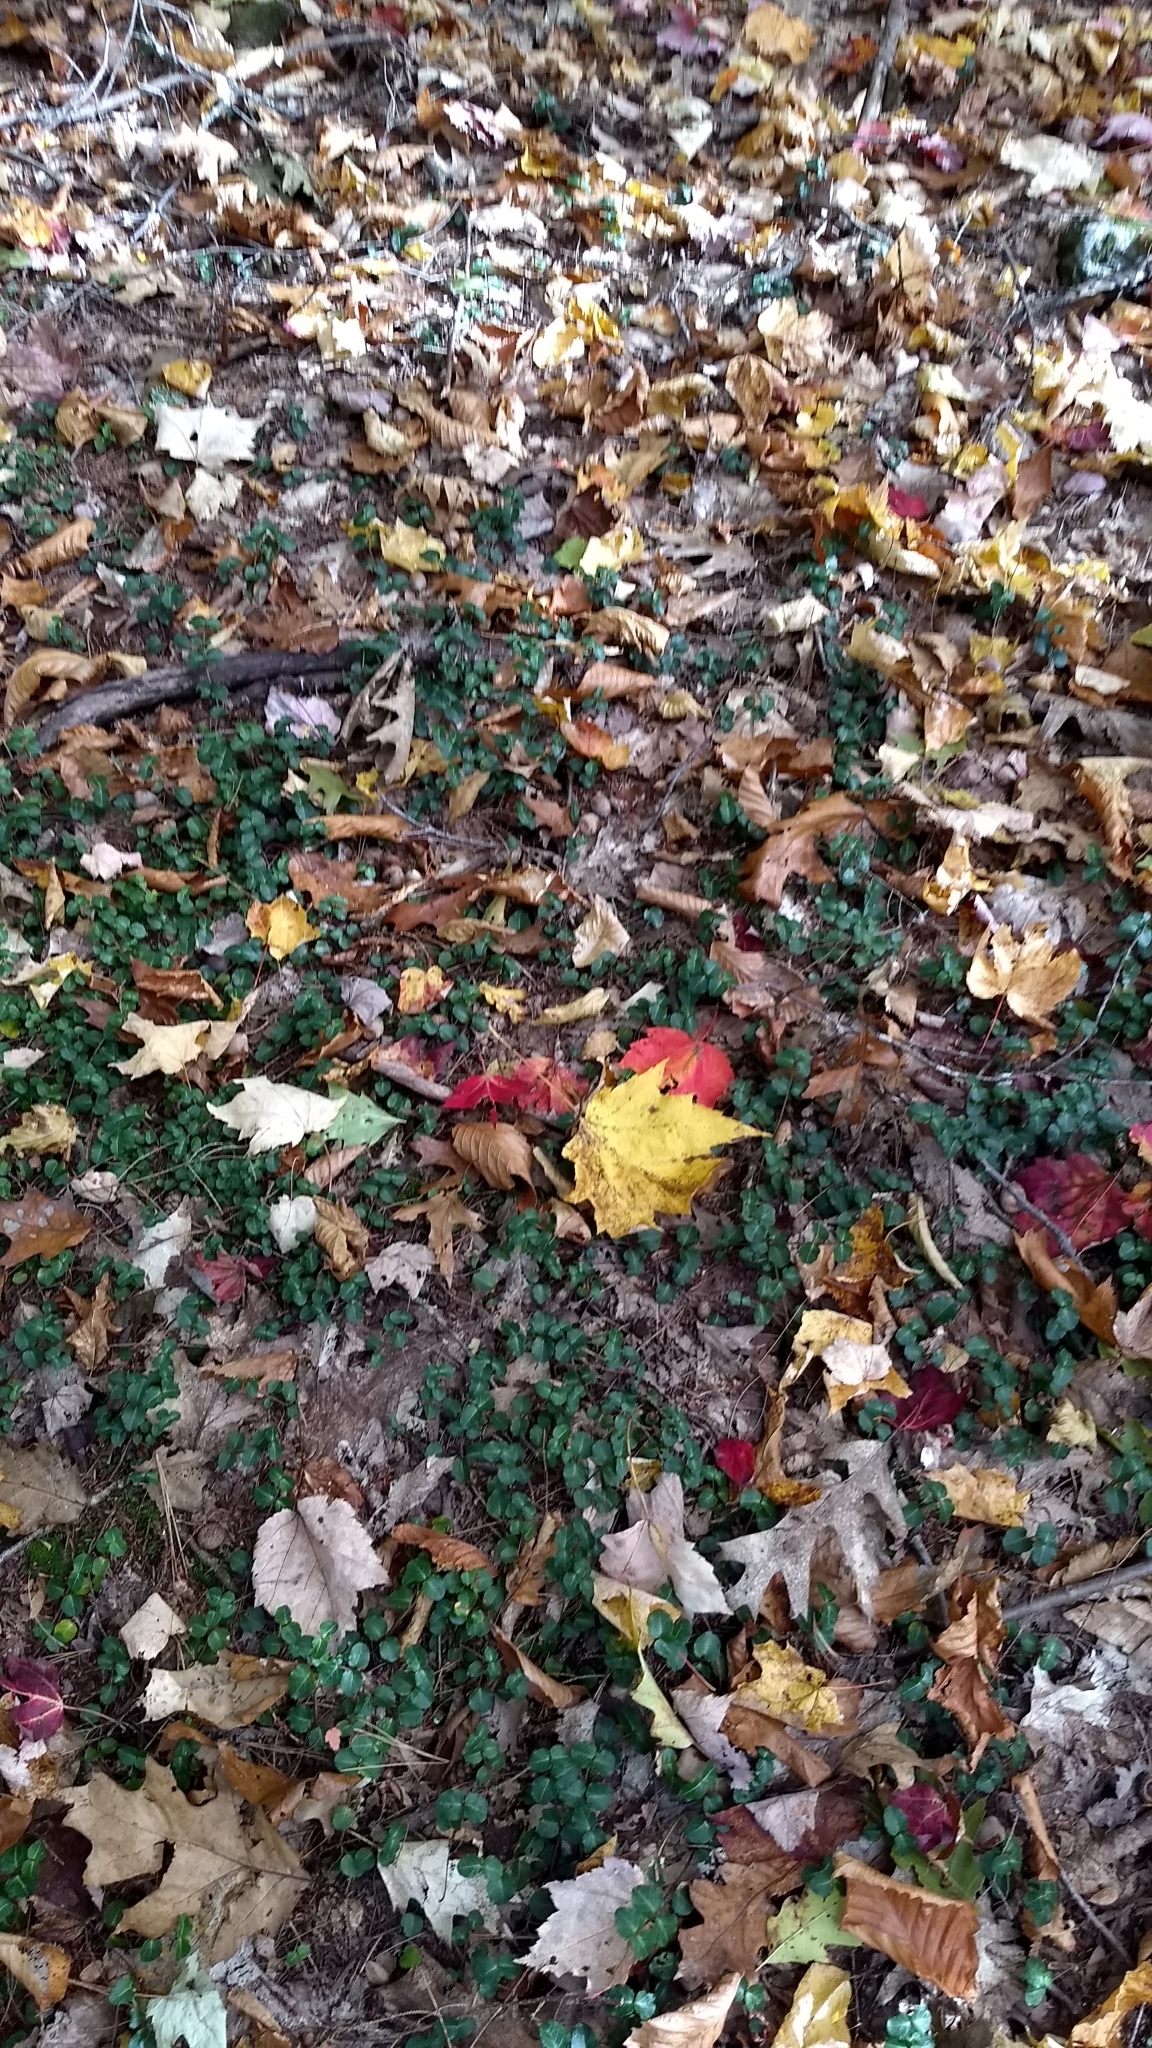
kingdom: Plantae
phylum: Tracheophyta
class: Magnoliopsida
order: Gentianales
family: Rubiaceae
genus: Mitchella
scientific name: Mitchella repens
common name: Partridge-berry
